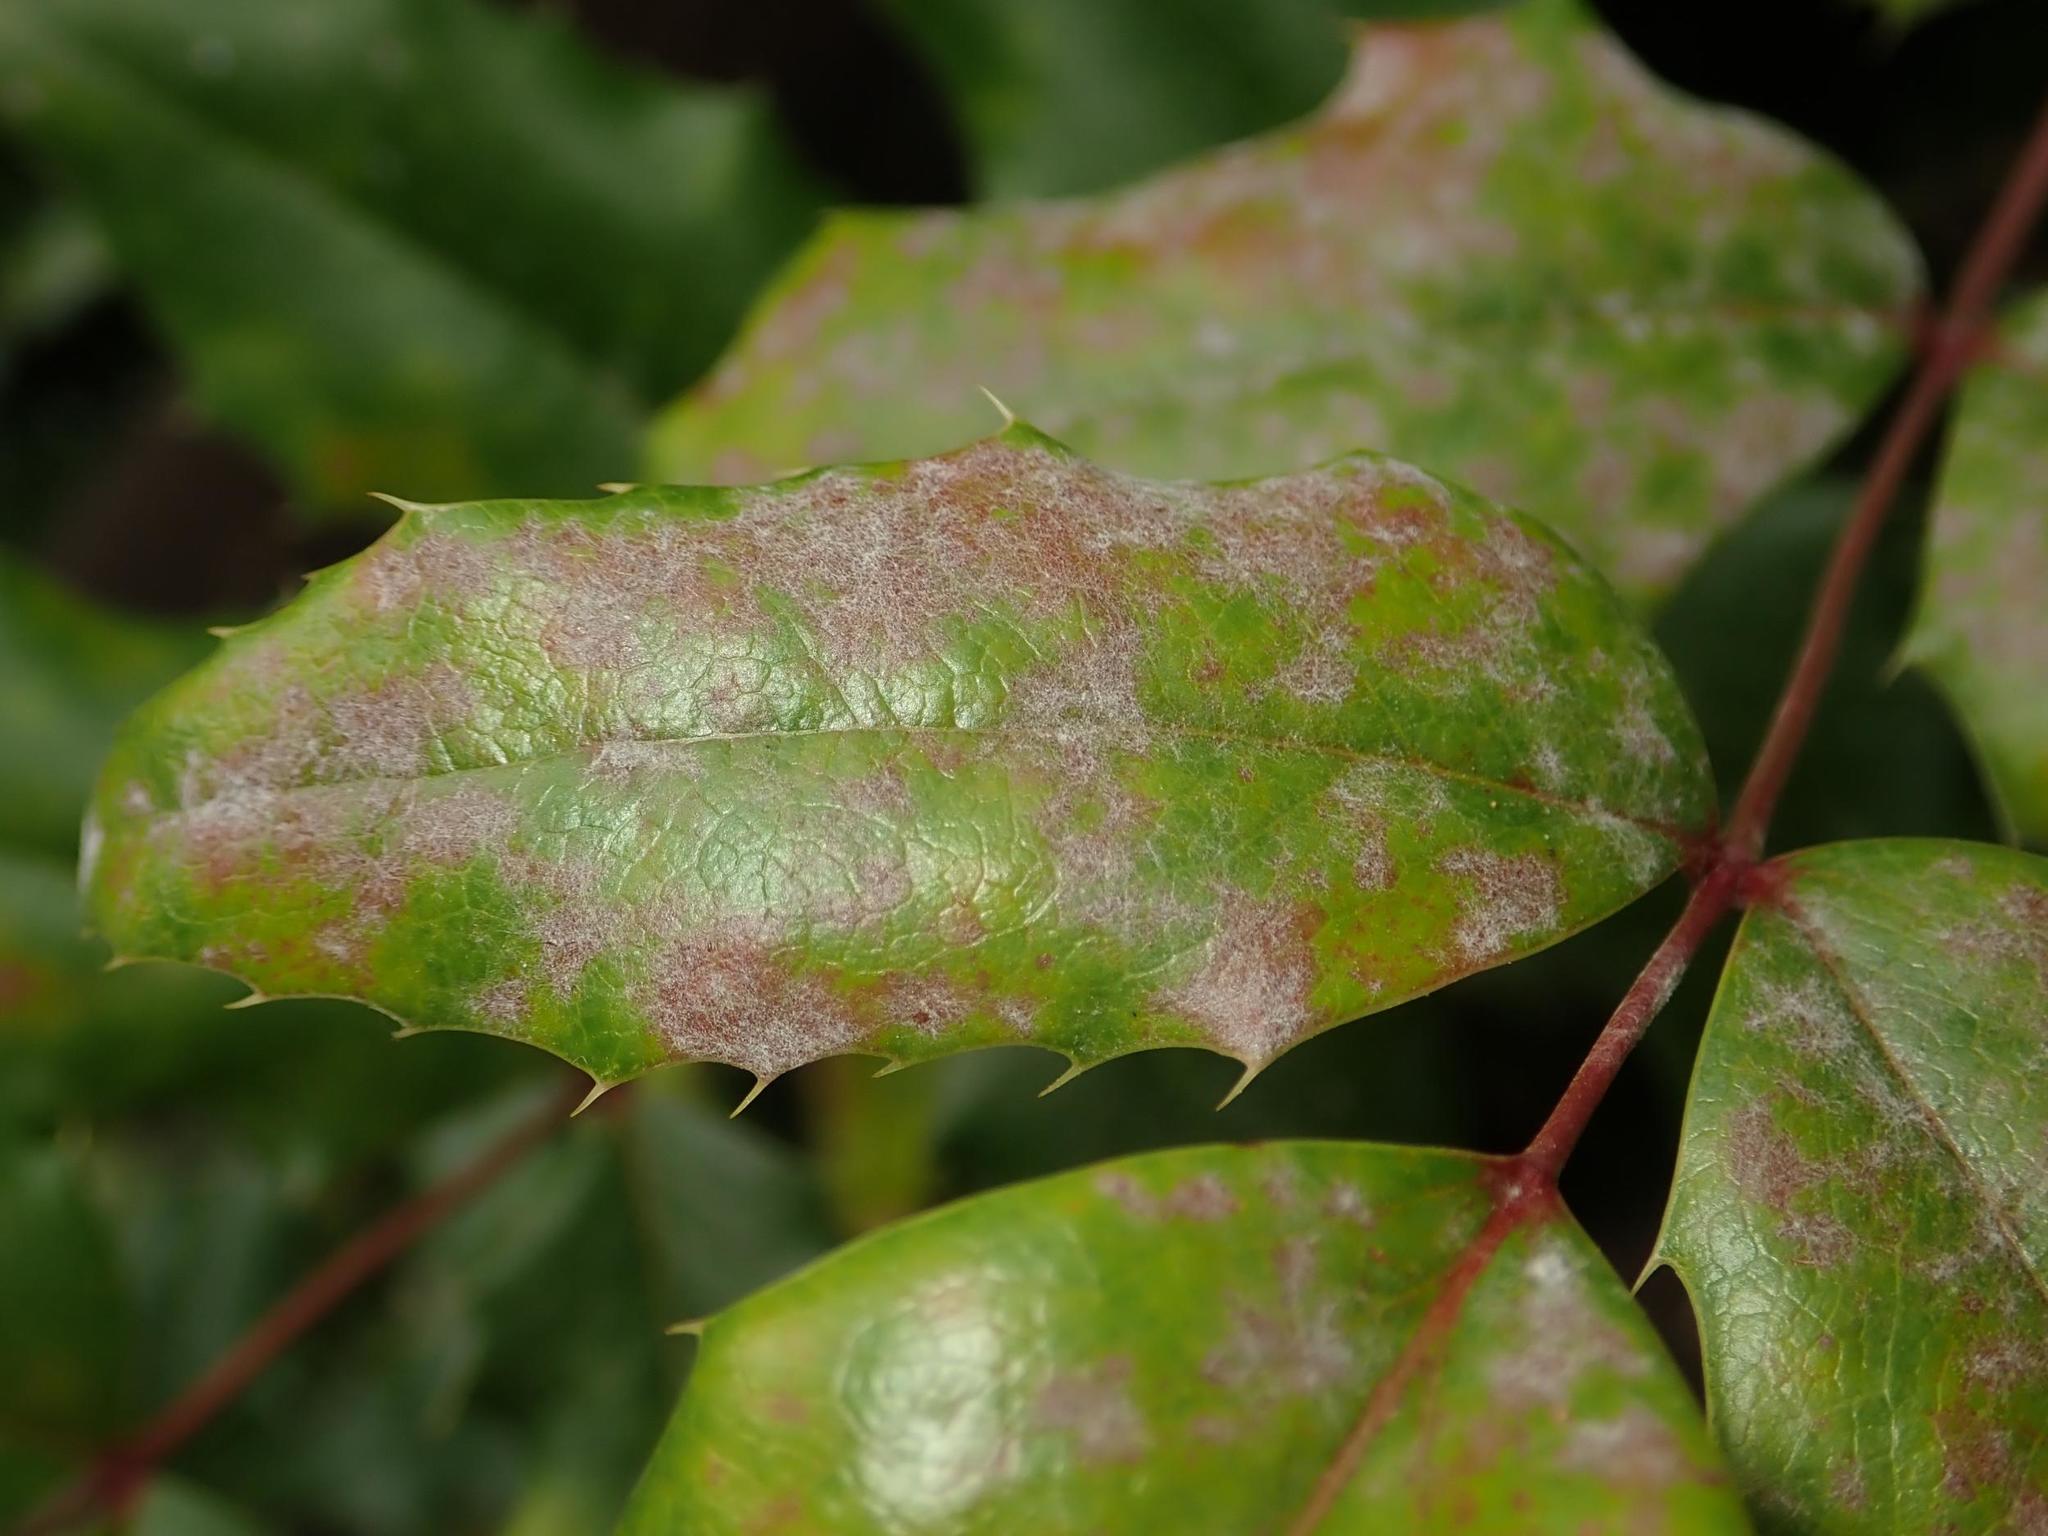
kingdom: Fungi
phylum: Ascomycota
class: Leotiomycetes
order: Helotiales
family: Erysiphaceae
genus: Erysiphe
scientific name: Erysiphe berberidis
